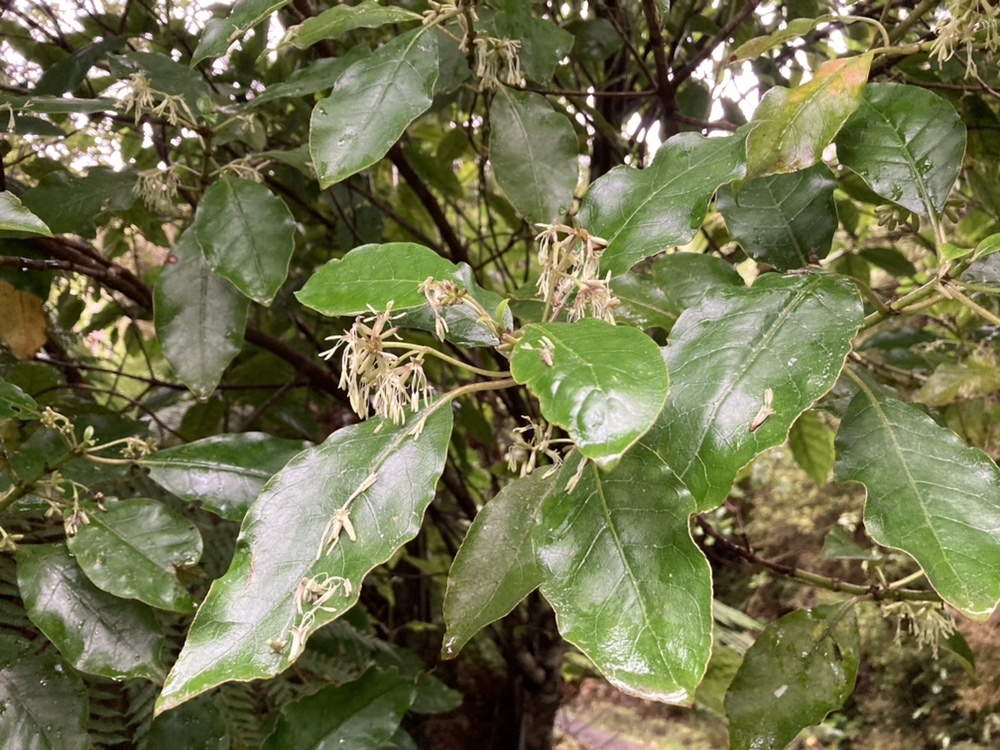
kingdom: Plantae
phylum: Tracheophyta
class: Magnoliopsida
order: Gentianales
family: Rubiaceae
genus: Coprosma
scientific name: Coprosma autumnalis
